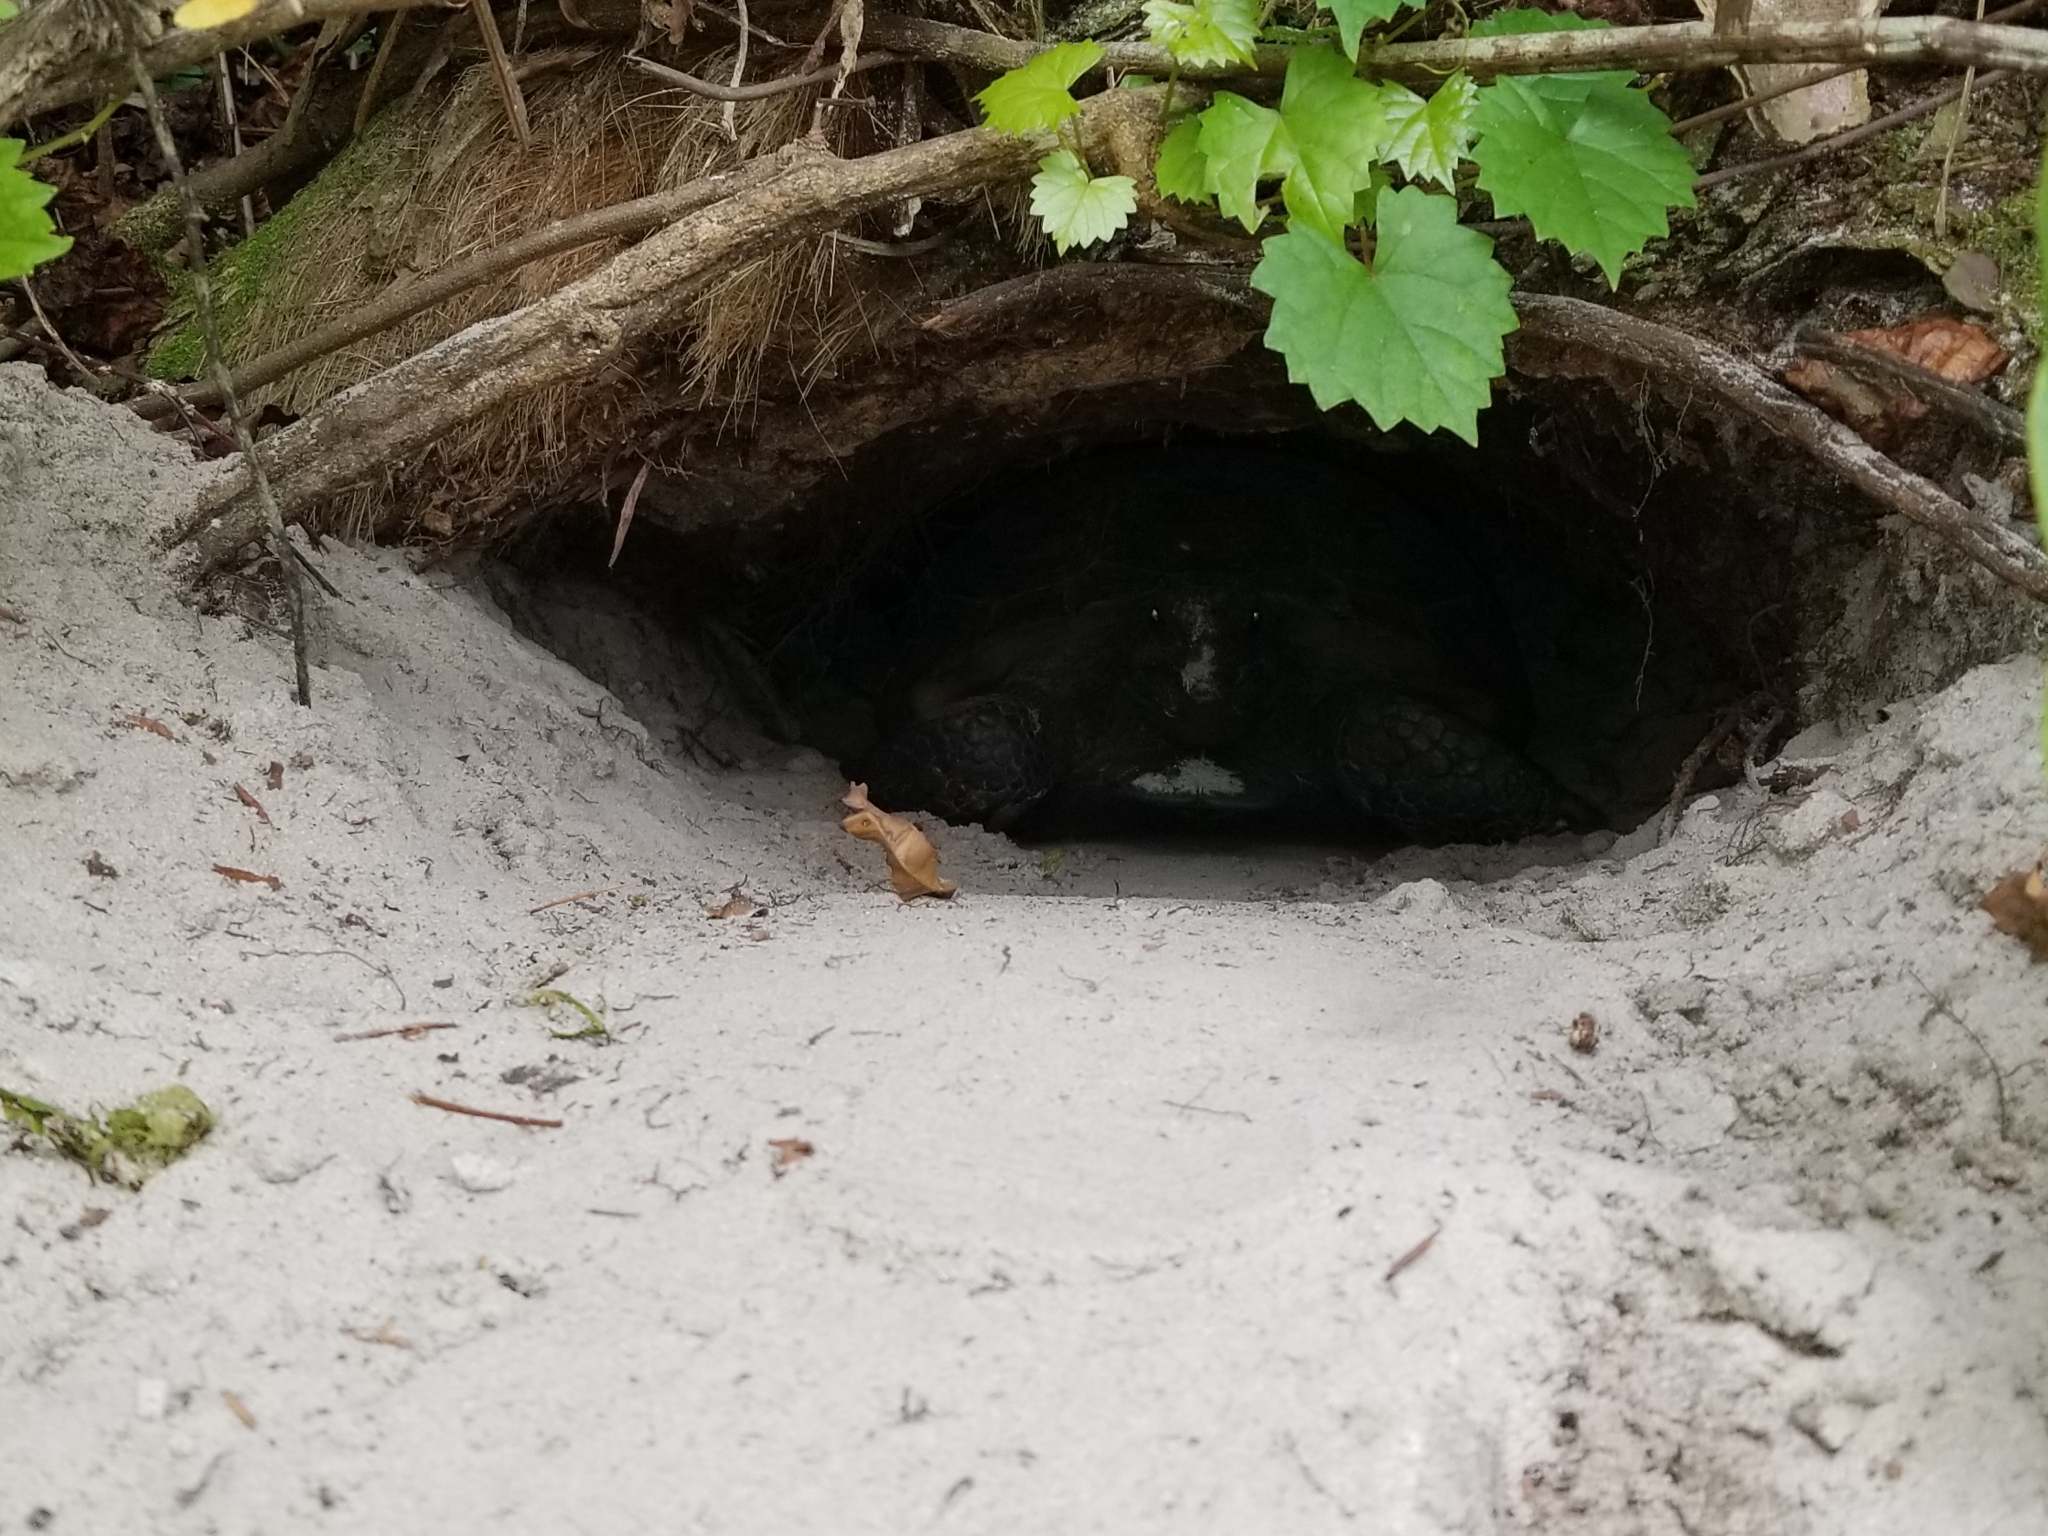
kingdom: Animalia
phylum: Chordata
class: Testudines
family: Testudinidae
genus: Gopherus
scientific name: Gopherus polyphemus
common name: Florida gopher tortoise
